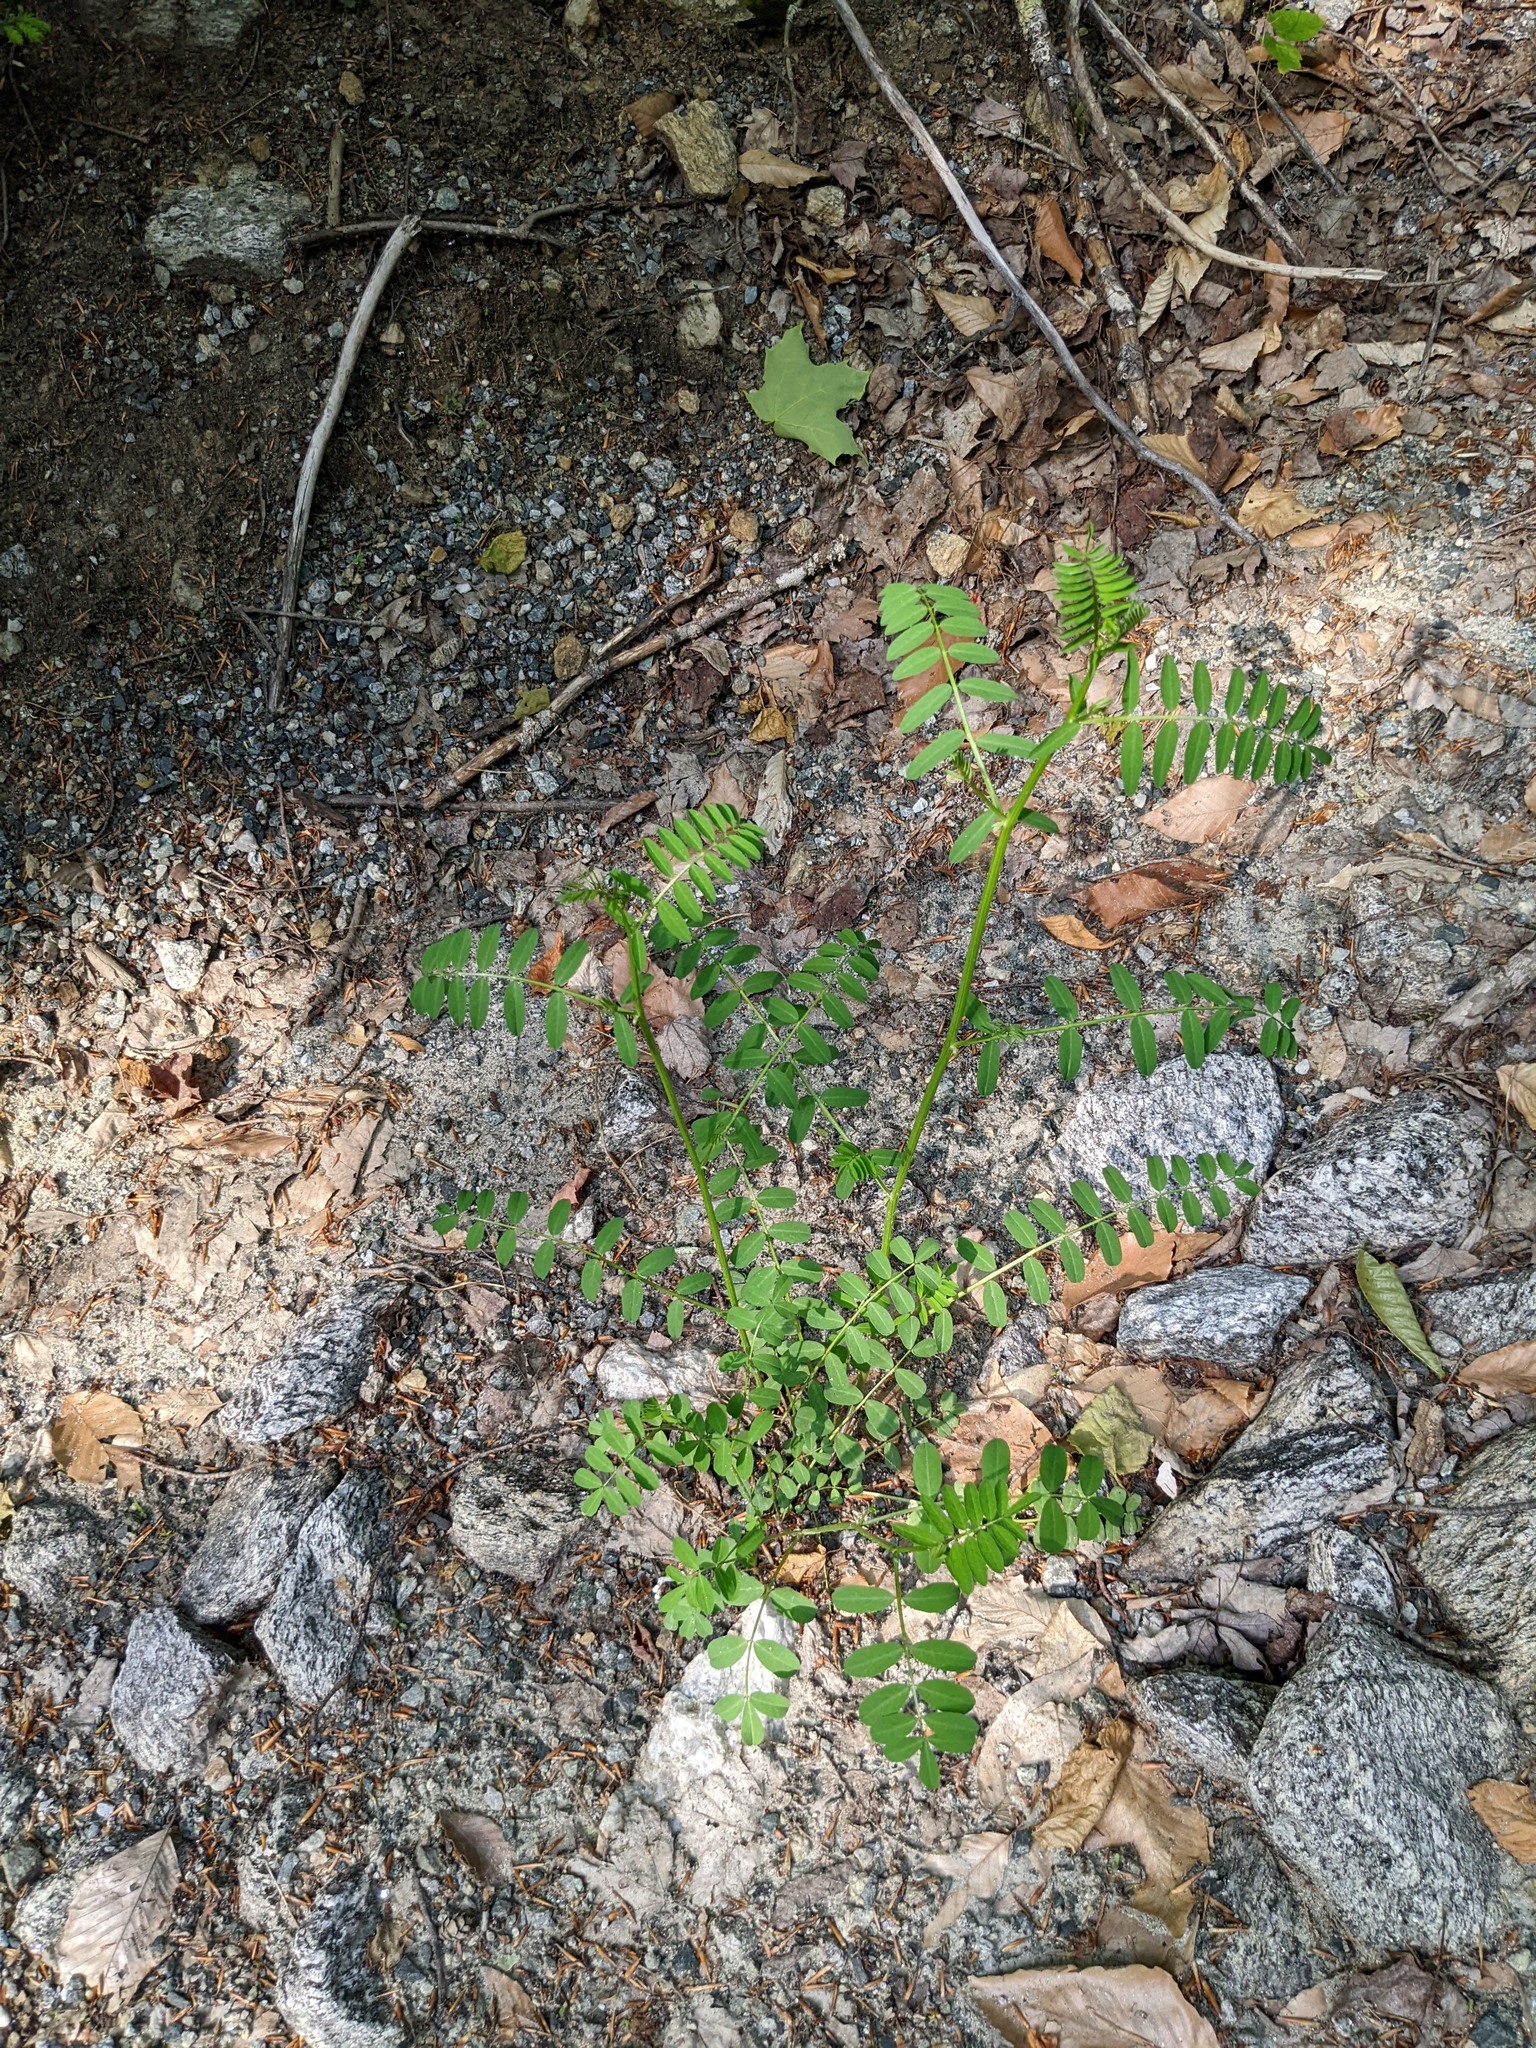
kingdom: Plantae
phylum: Tracheophyta
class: Magnoliopsida
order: Fabales
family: Fabaceae
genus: Coronilla
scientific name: Coronilla varia
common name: Crownvetch
